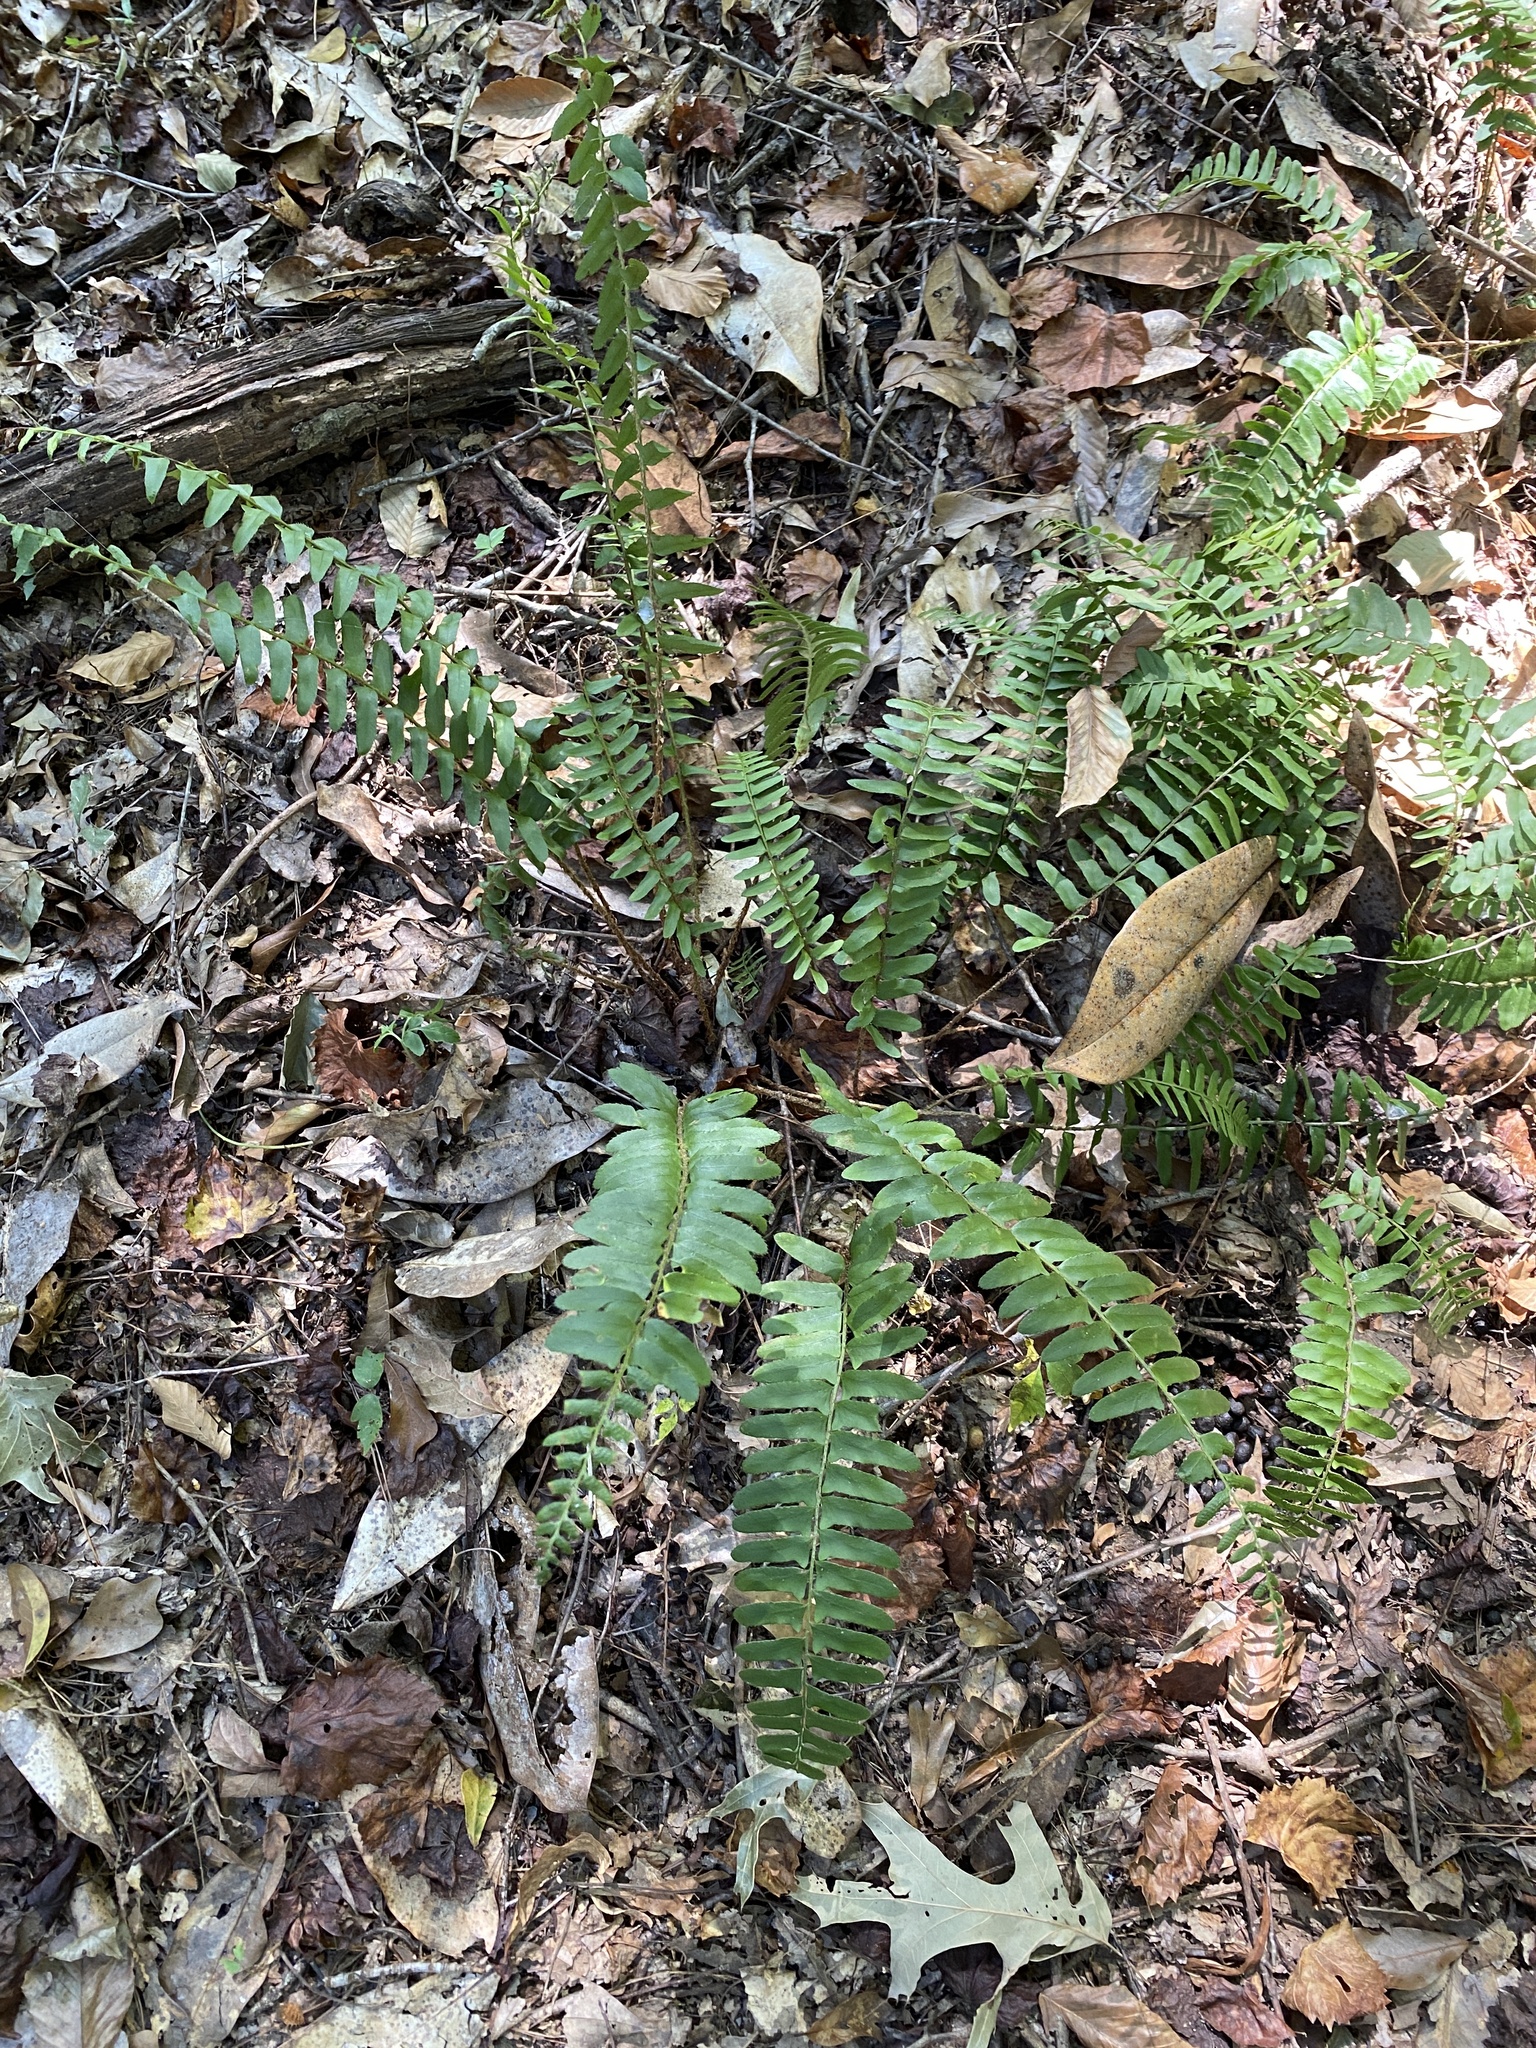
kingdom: Plantae
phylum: Tracheophyta
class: Polypodiopsida
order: Polypodiales
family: Dryopteridaceae
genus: Polystichum
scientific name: Polystichum acrostichoides
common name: Christmas fern
